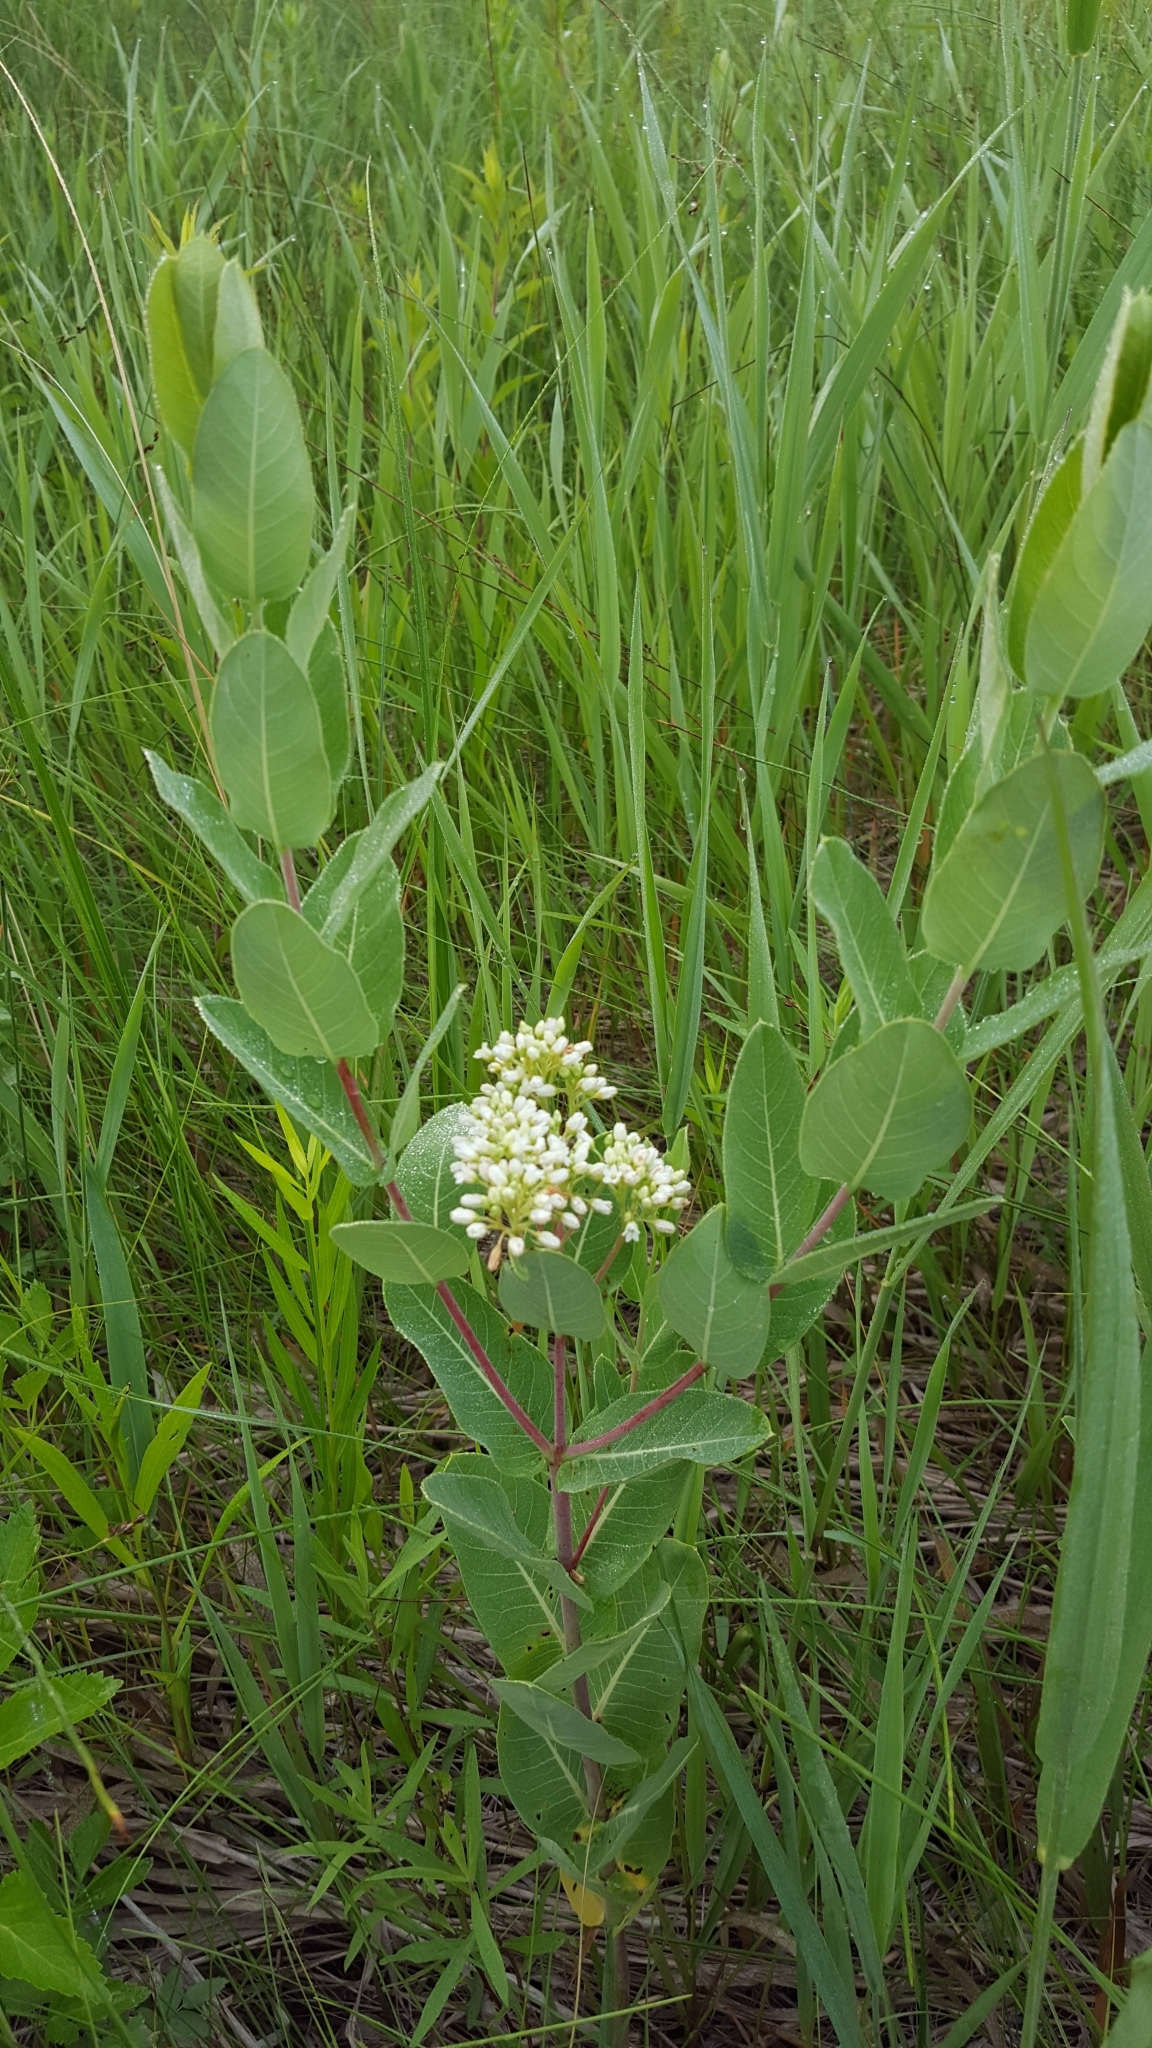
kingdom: Plantae
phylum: Tracheophyta
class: Magnoliopsida
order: Gentianales
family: Apocynaceae
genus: Apocynum
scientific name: Apocynum cannabinum
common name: Hemp dogbane
